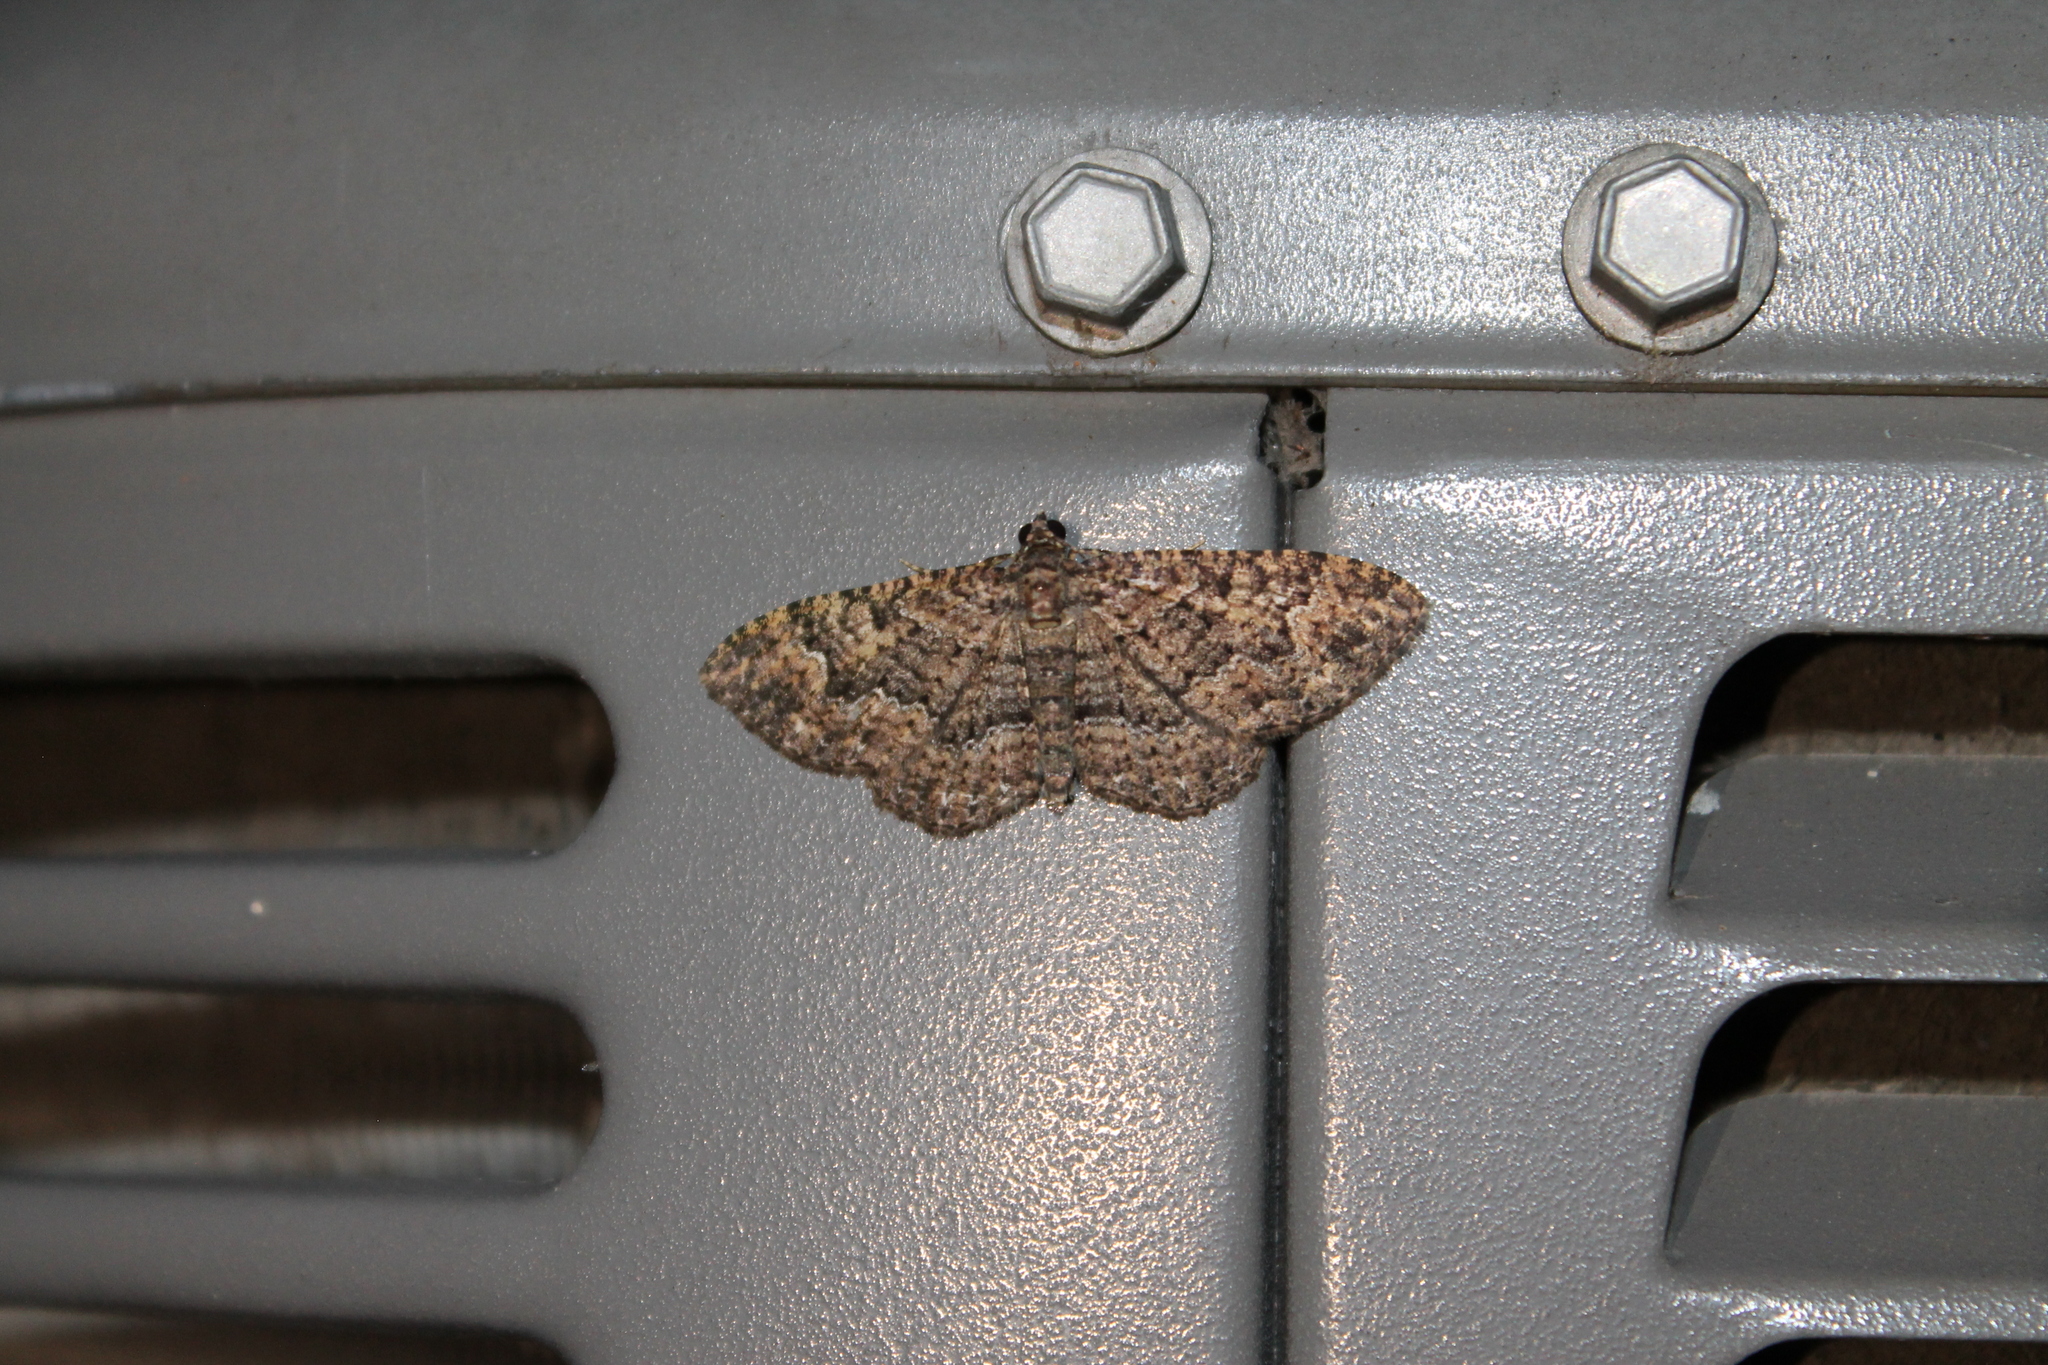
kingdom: Animalia
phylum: Arthropoda
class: Insecta
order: Lepidoptera
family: Geometridae
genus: Disclisioprocta
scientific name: Disclisioprocta stellata
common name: Somber carpet
